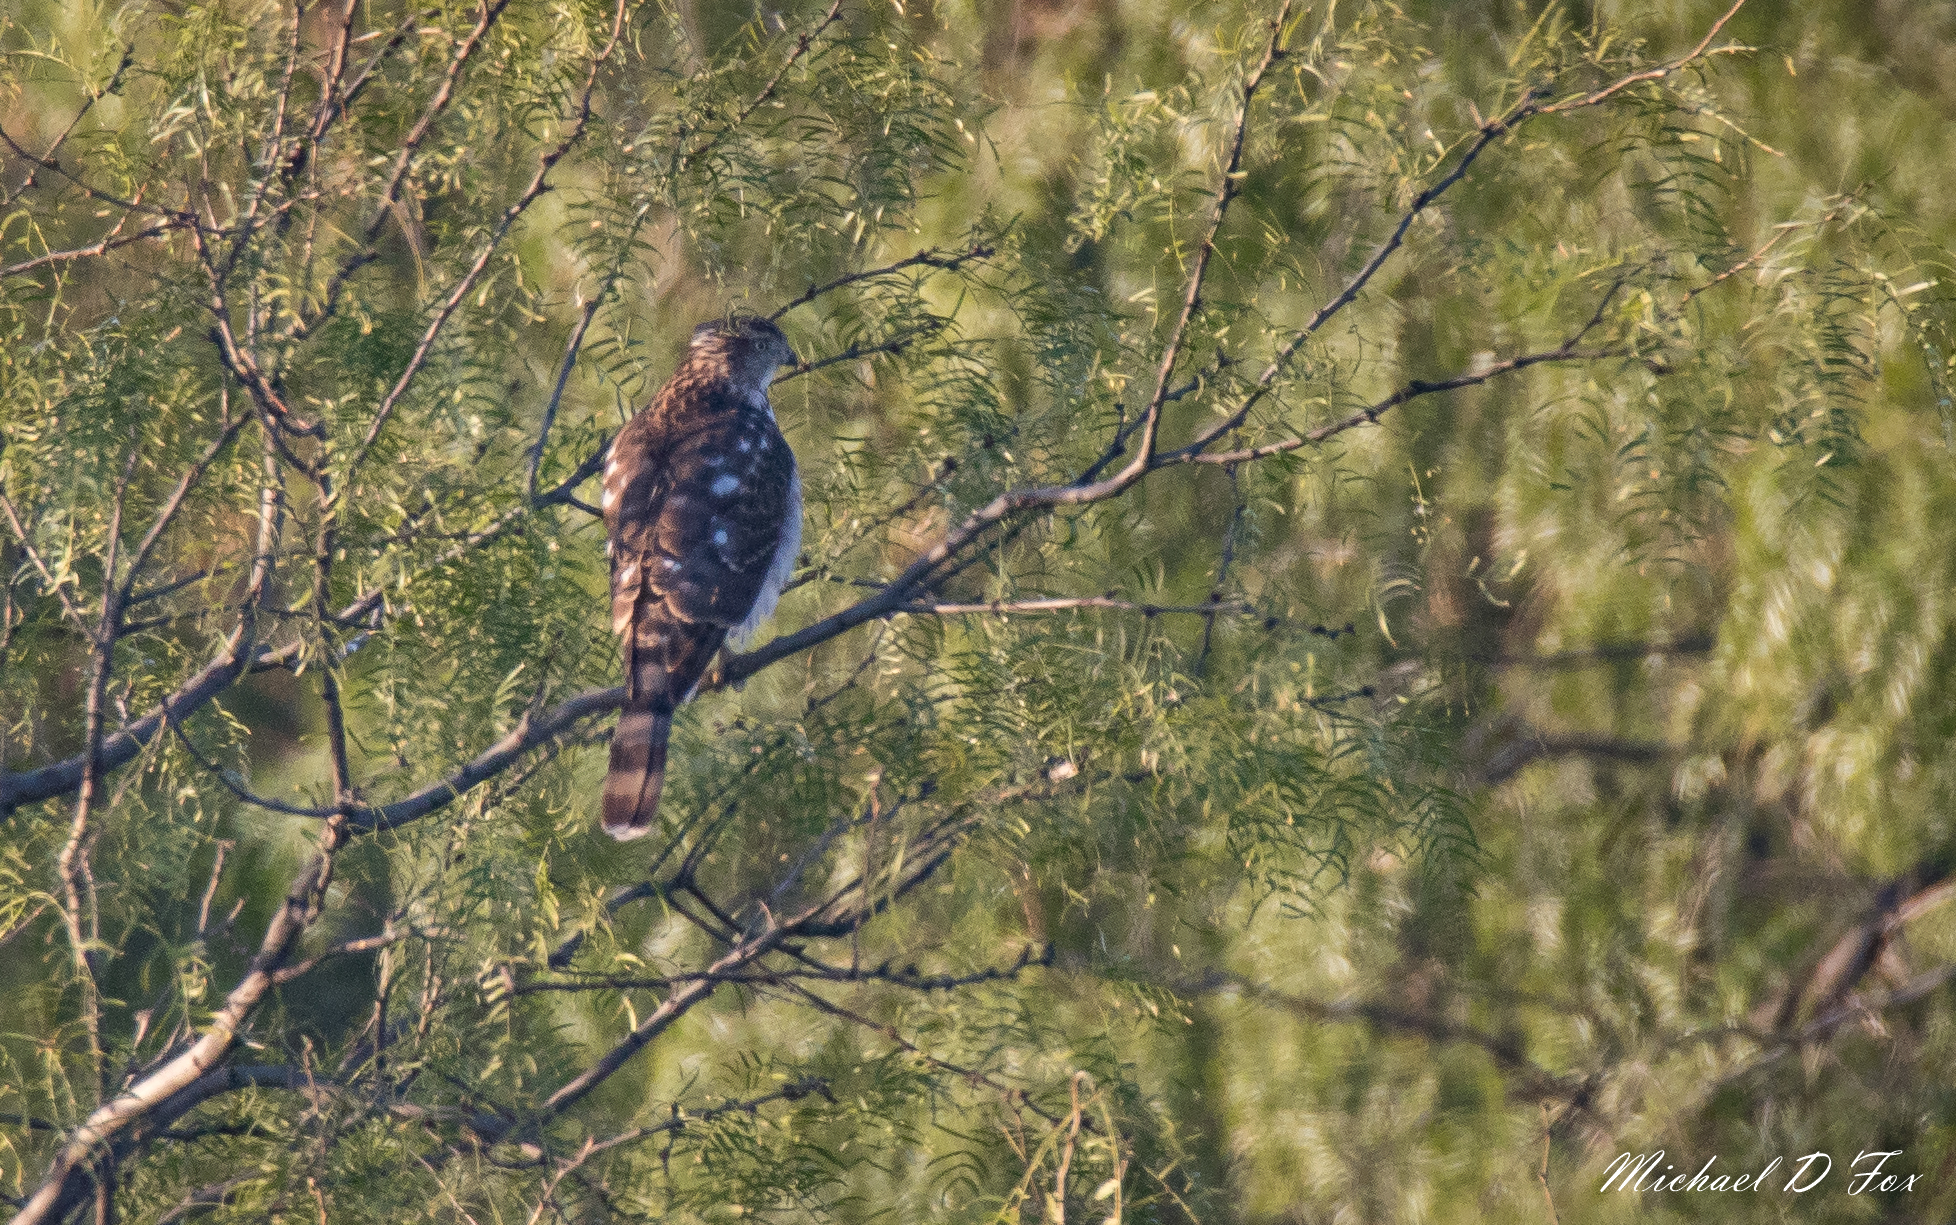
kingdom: Animalia
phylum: Chordata
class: Aves
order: Accipitriformes
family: Accipitridae
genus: Accipiter
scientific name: Accipiter cooperii
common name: Cooper's hawk
